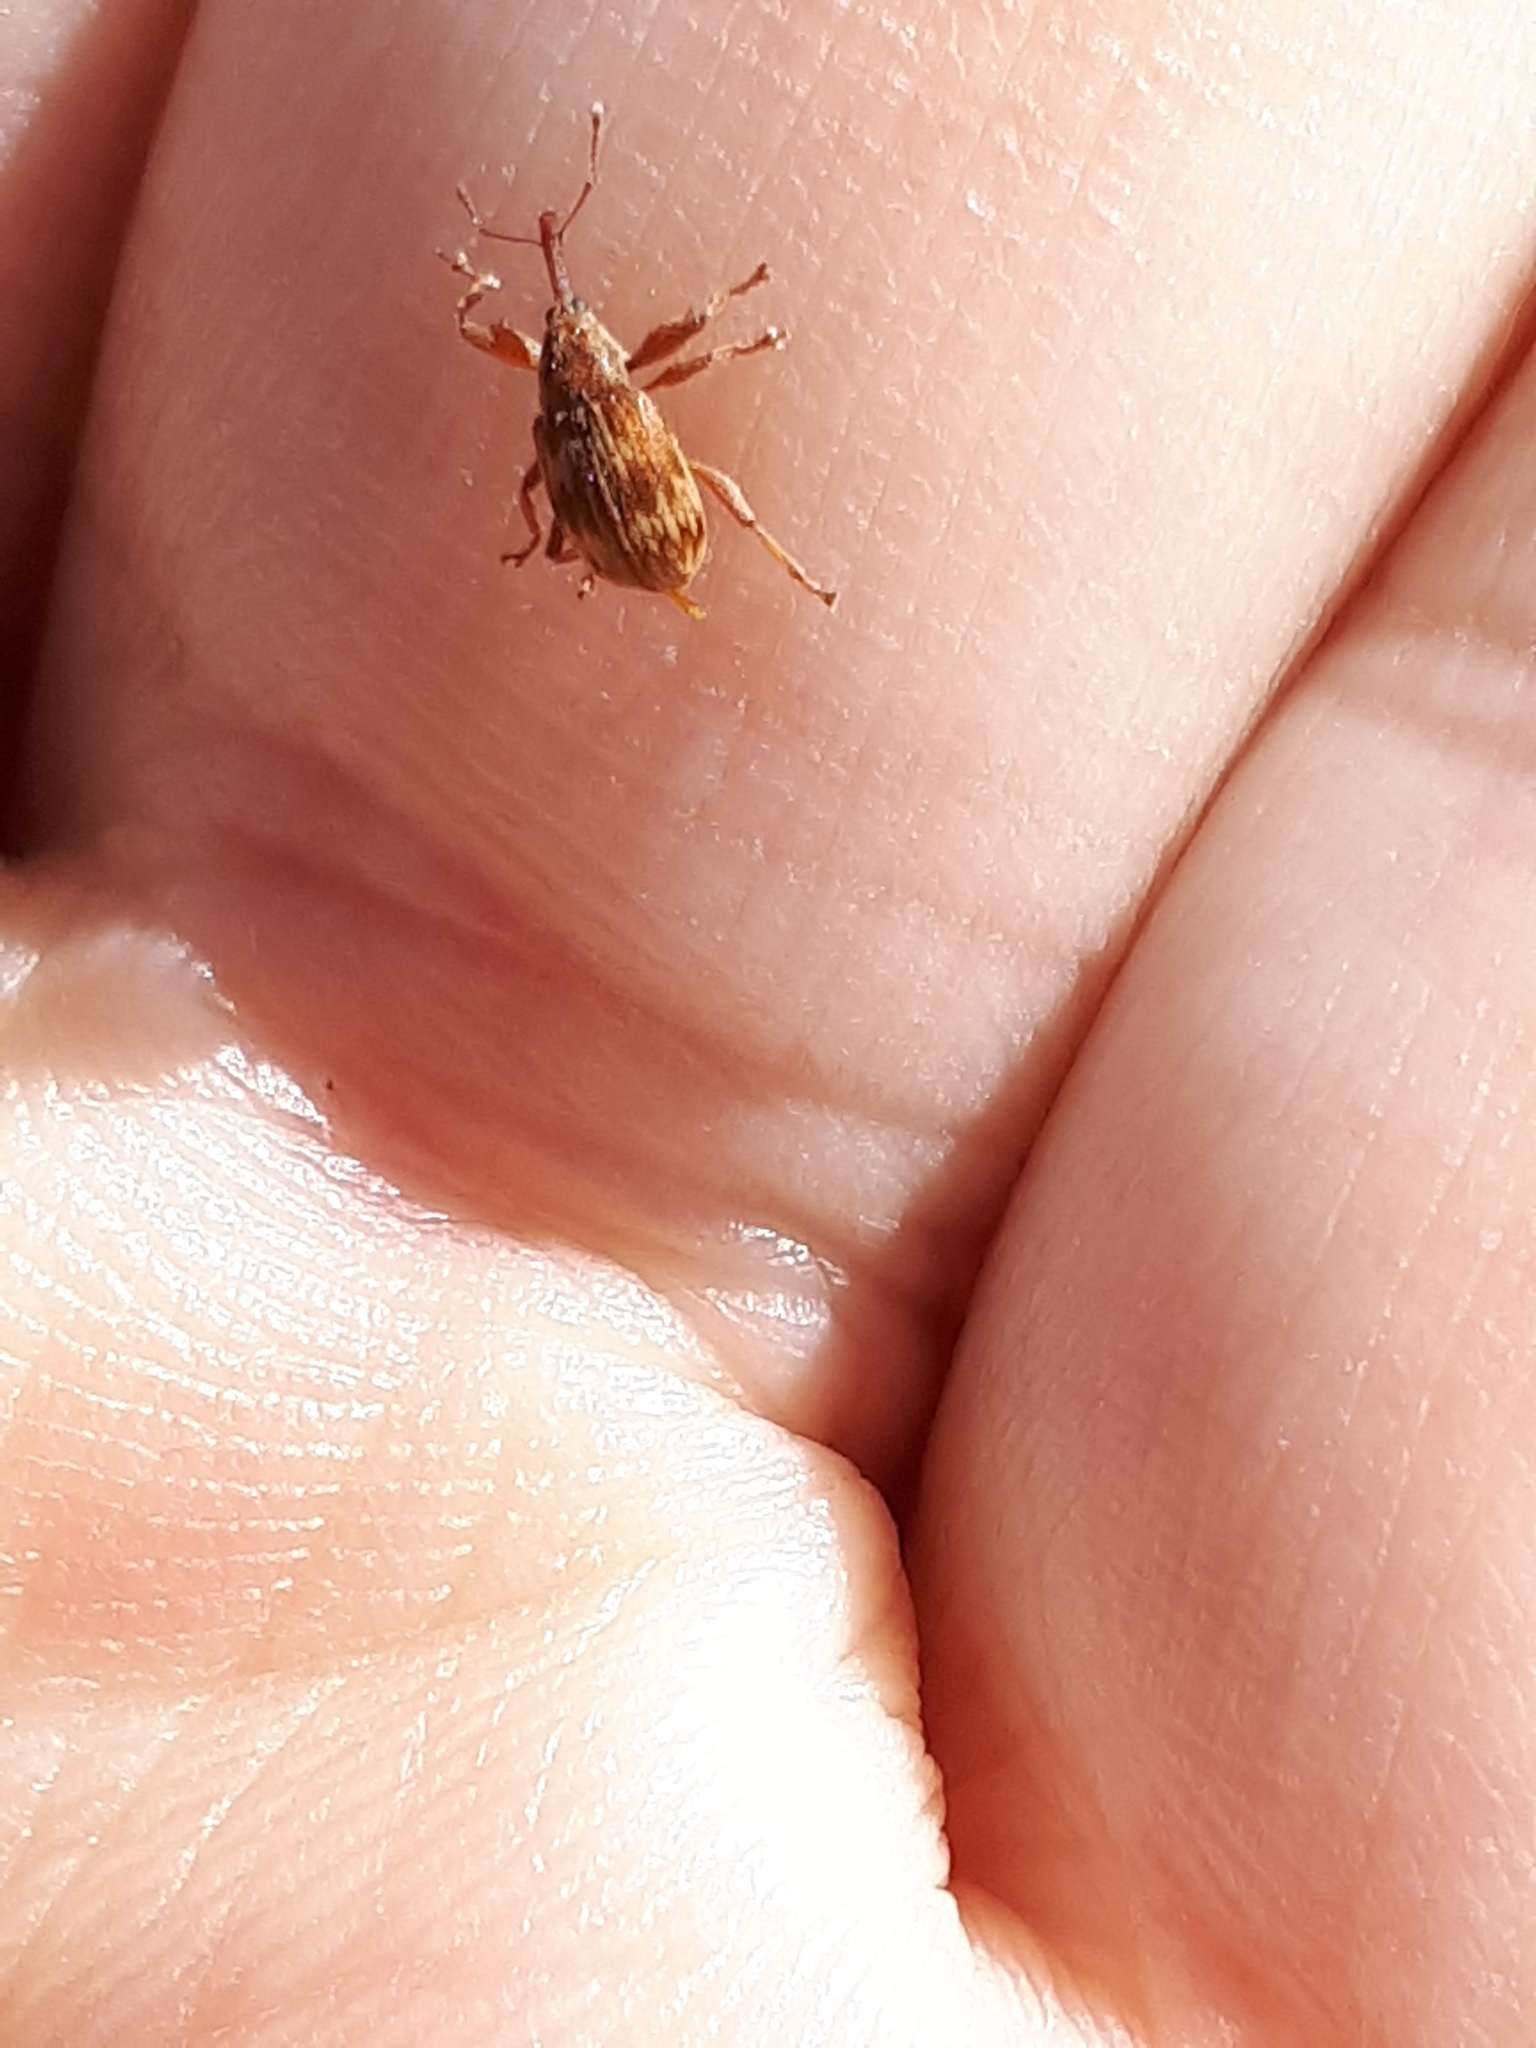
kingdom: Animalia
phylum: Arthropoda
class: Insecta
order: Coleoptera
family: Curculionidae
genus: Anthonomus
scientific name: Anthonomus rectirostris
